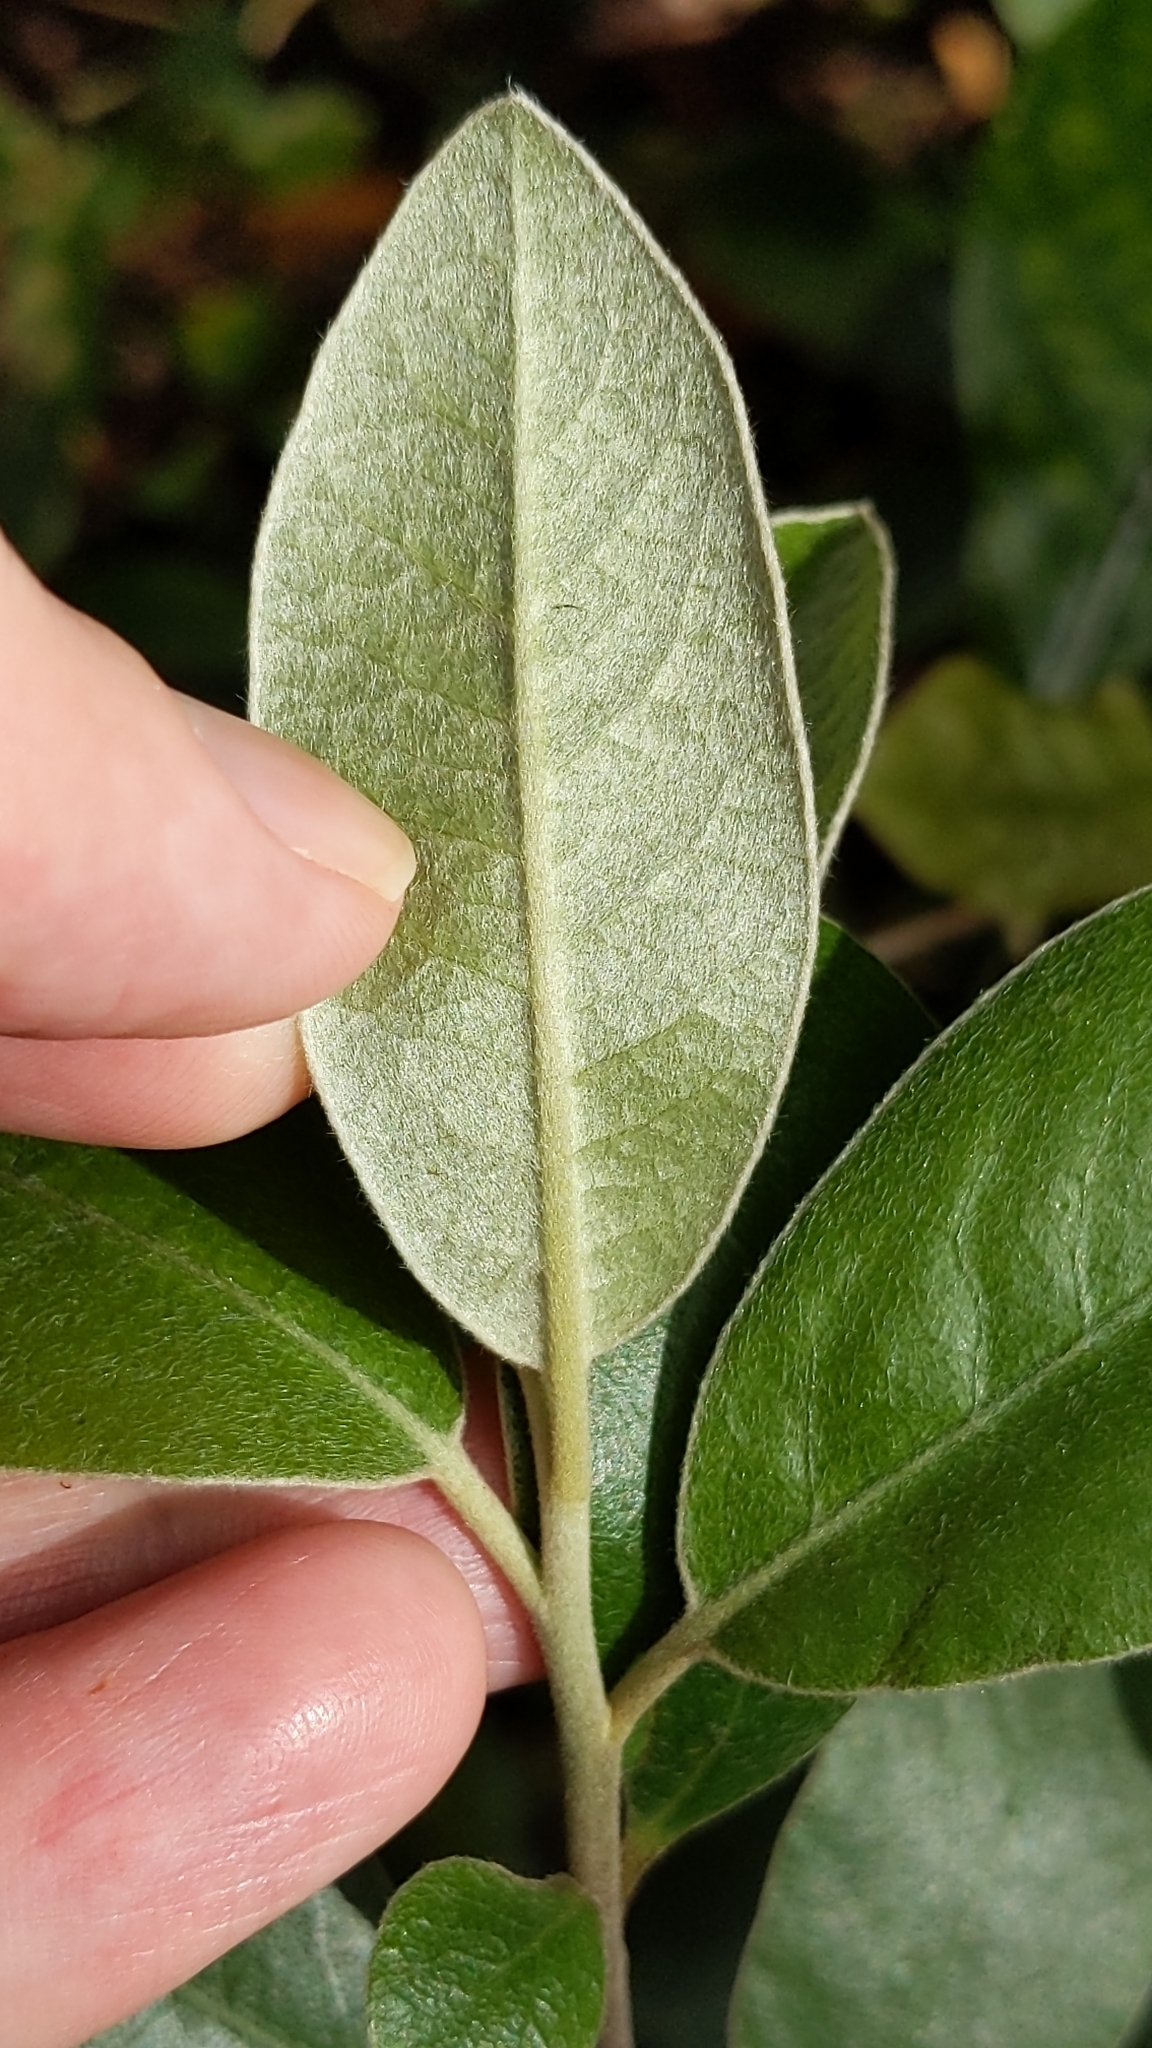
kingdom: Plantae
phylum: Tracheophyta
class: Magnoliopsida
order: Apiales
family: Pittosporaceae
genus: Pittosporum
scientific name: Pittosporum ralphii
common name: Ralph's desertwillow
